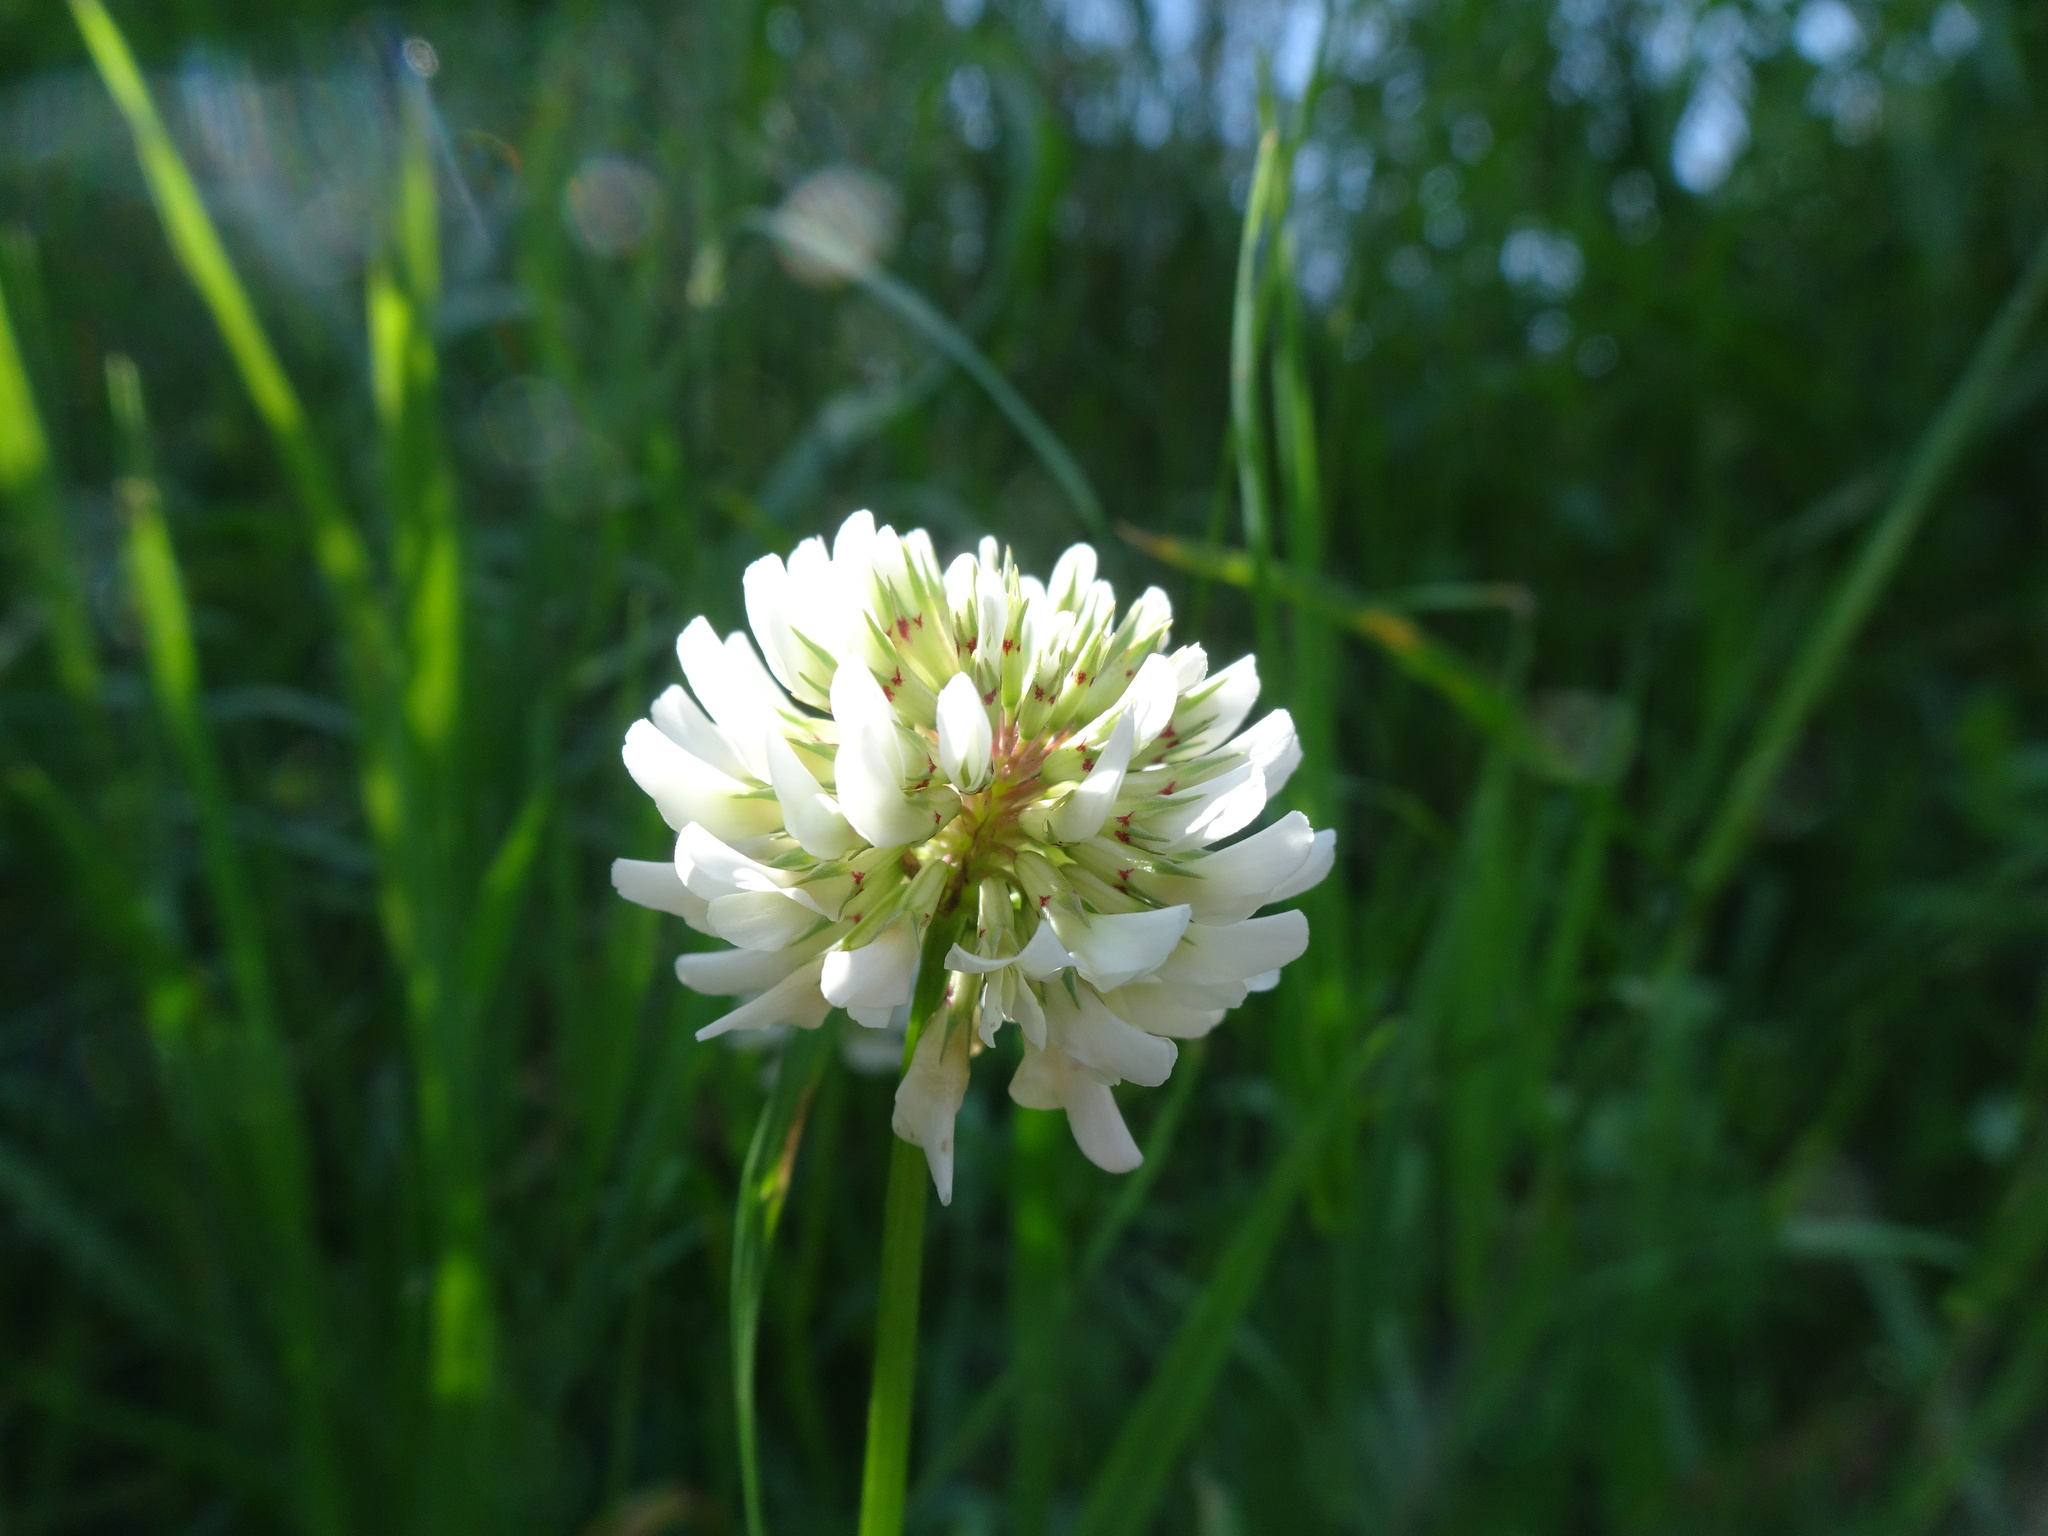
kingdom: Plantae
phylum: Tracheophyta
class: Magnoliopsida
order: Fabales
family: Fabaceae
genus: Trifolium
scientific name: Trifolium repens
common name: White clover
